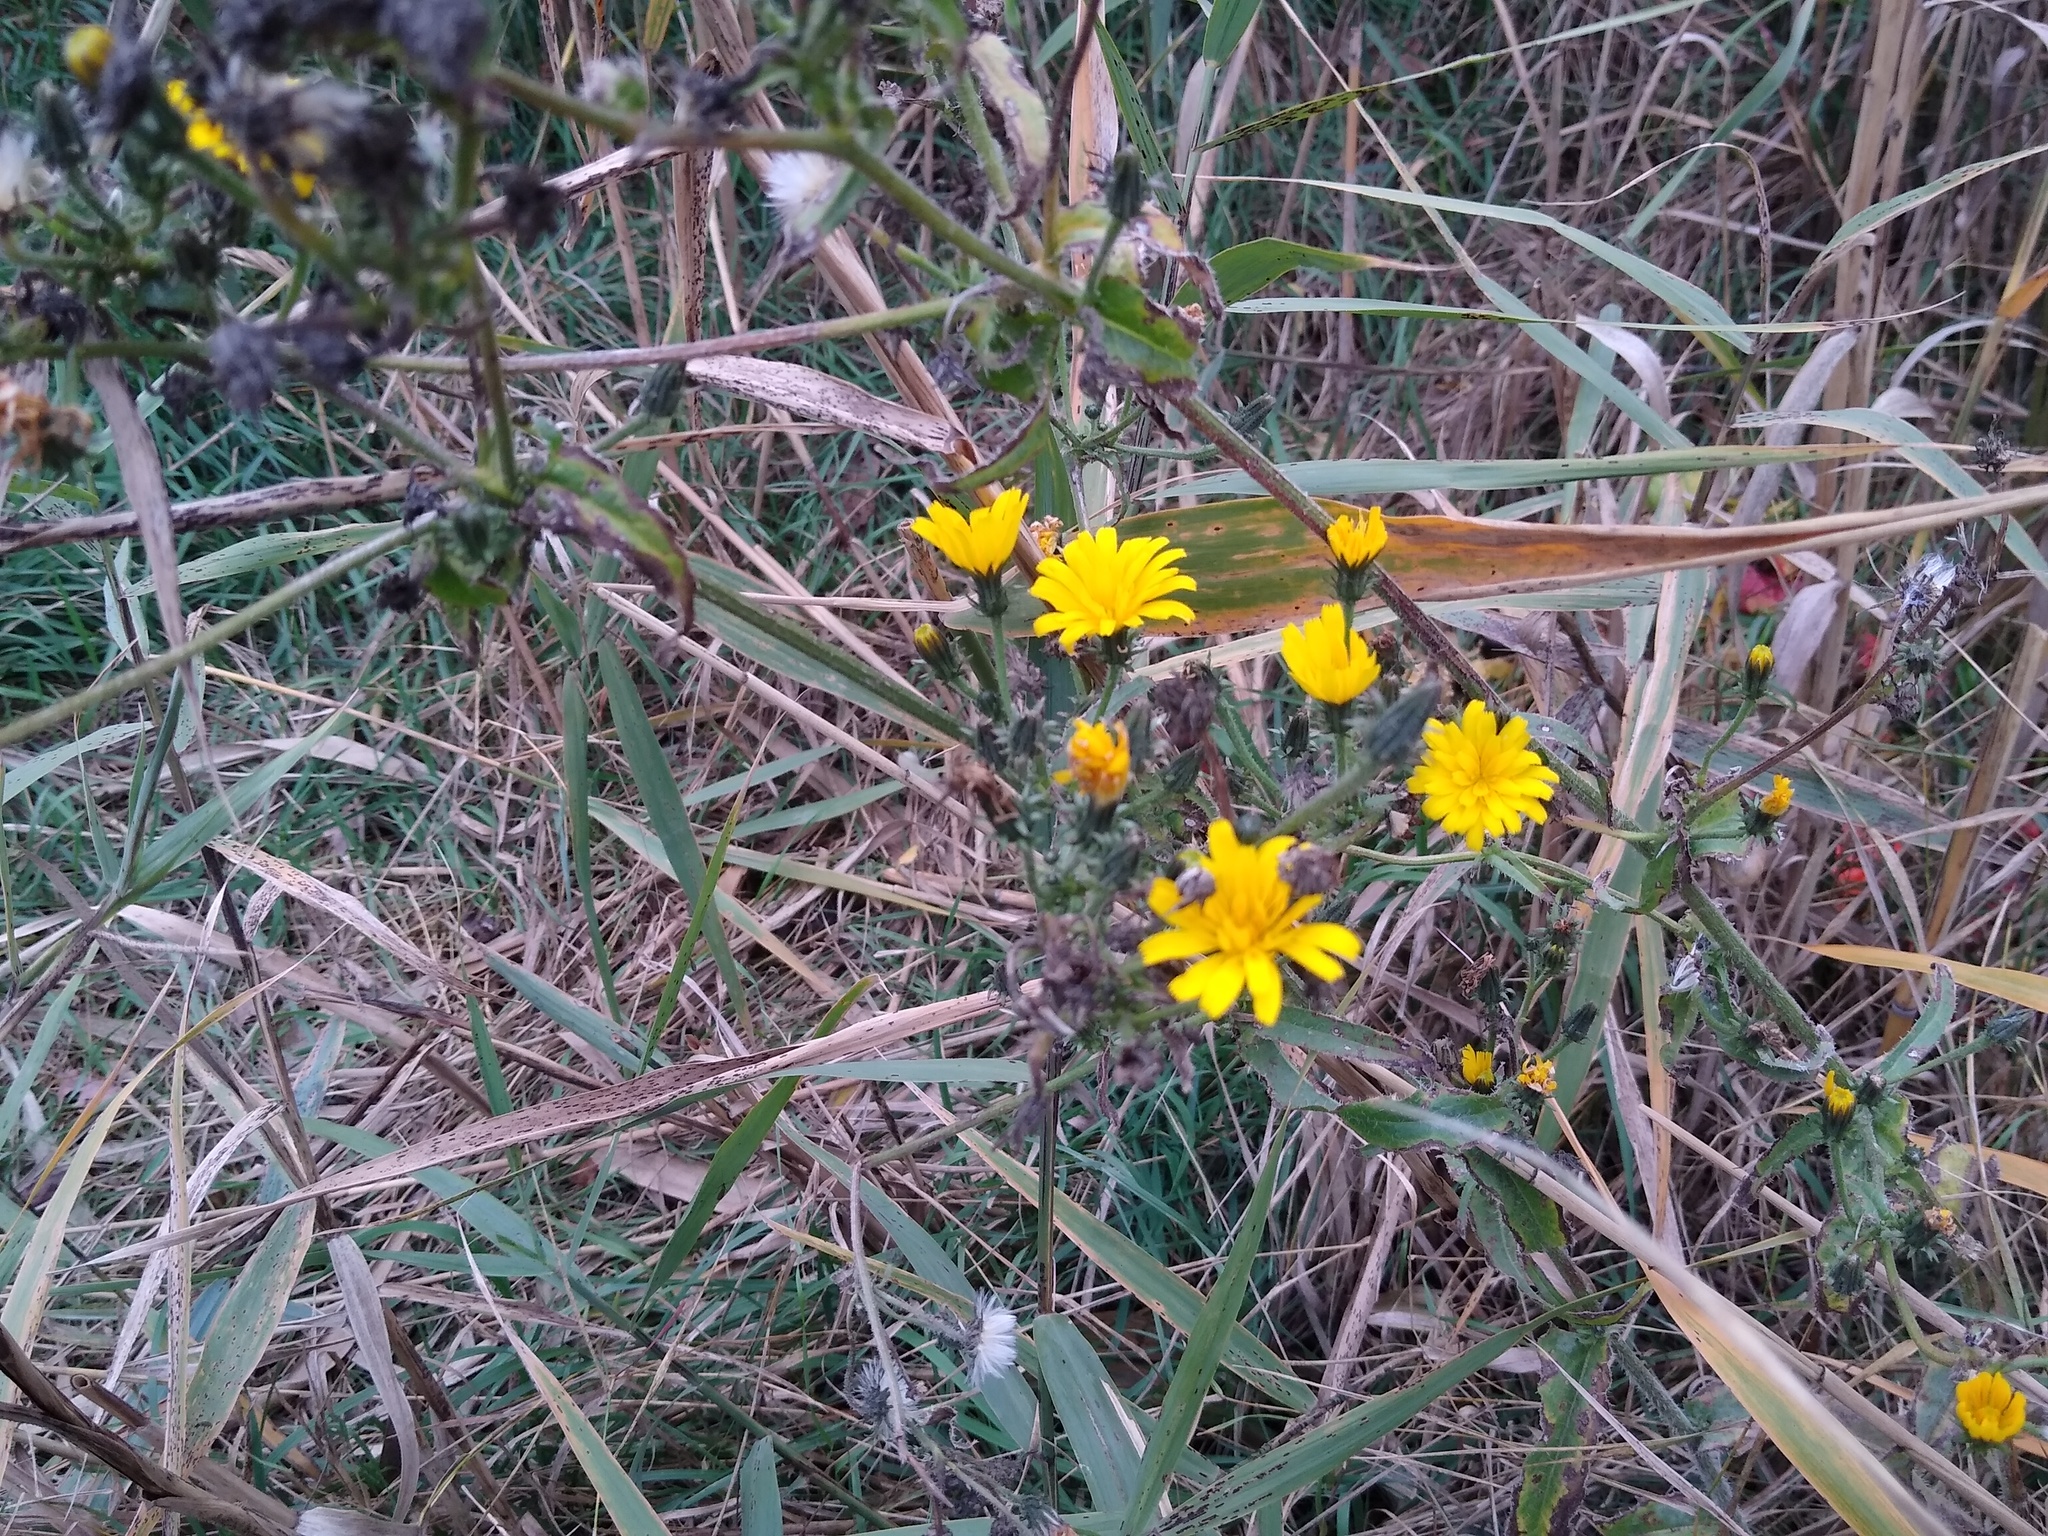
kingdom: Plantae
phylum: Tracheophyta
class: Magnoliopsida
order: Asterales
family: Asteraceae
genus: Picris
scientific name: Picris hieracioides
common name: Hawkweed oxtongue
